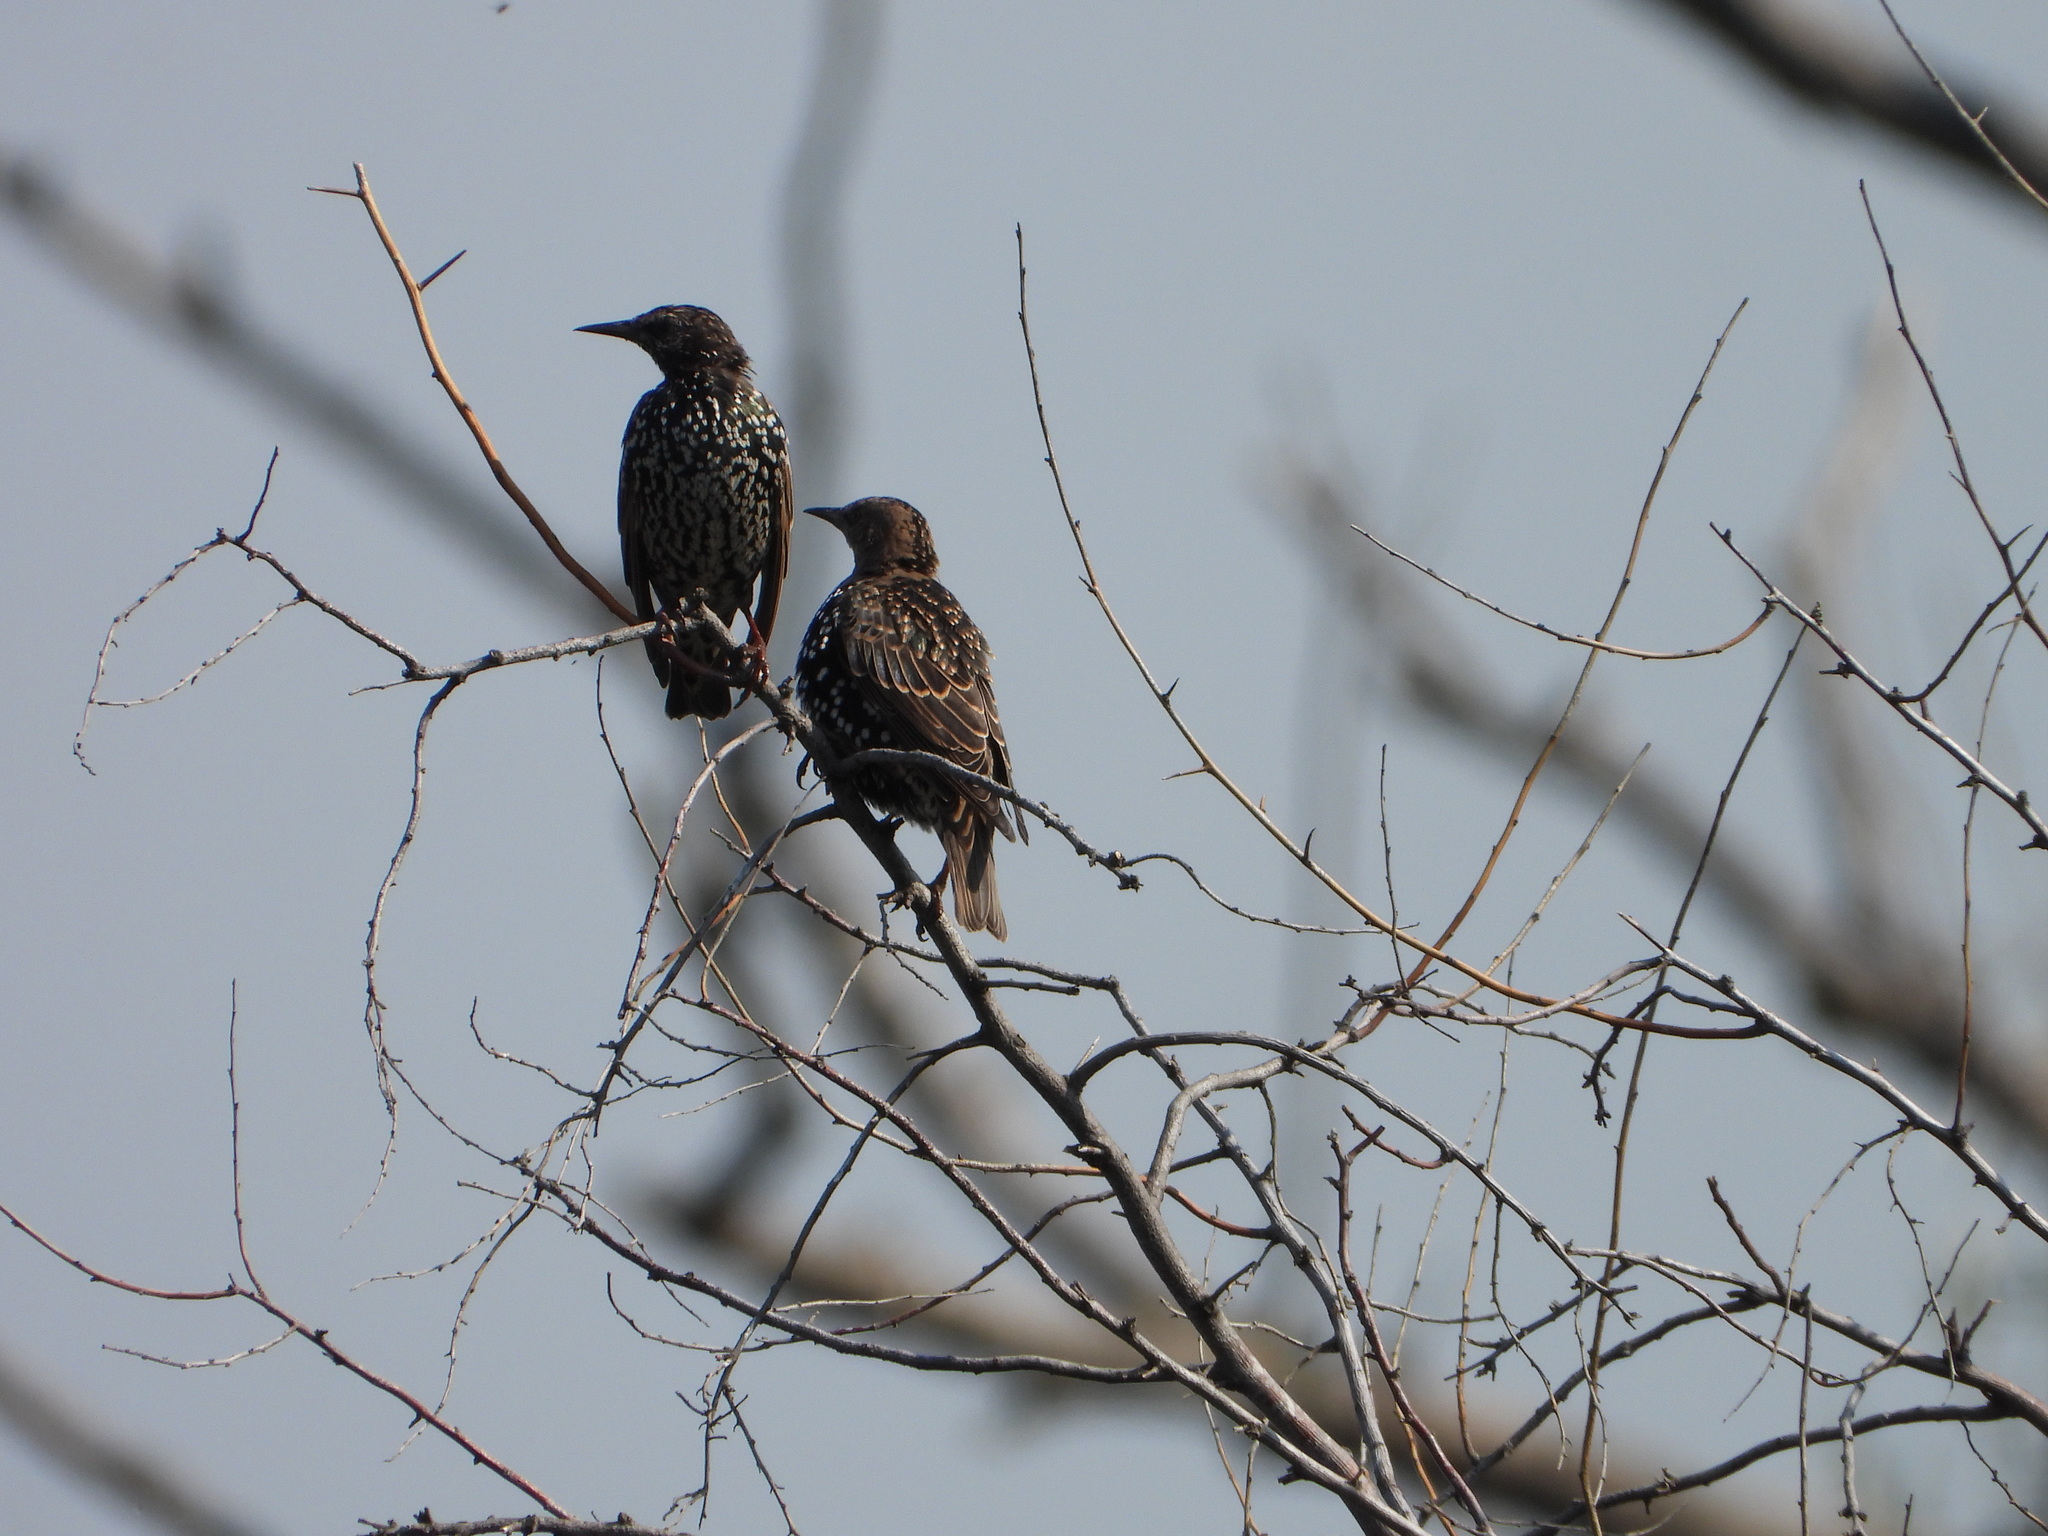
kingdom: Animalia
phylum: Chordata
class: Aves
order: Passeriformes
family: Sturnidae
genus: Sturnus
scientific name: Sturnus vulgaris
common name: Common starling
